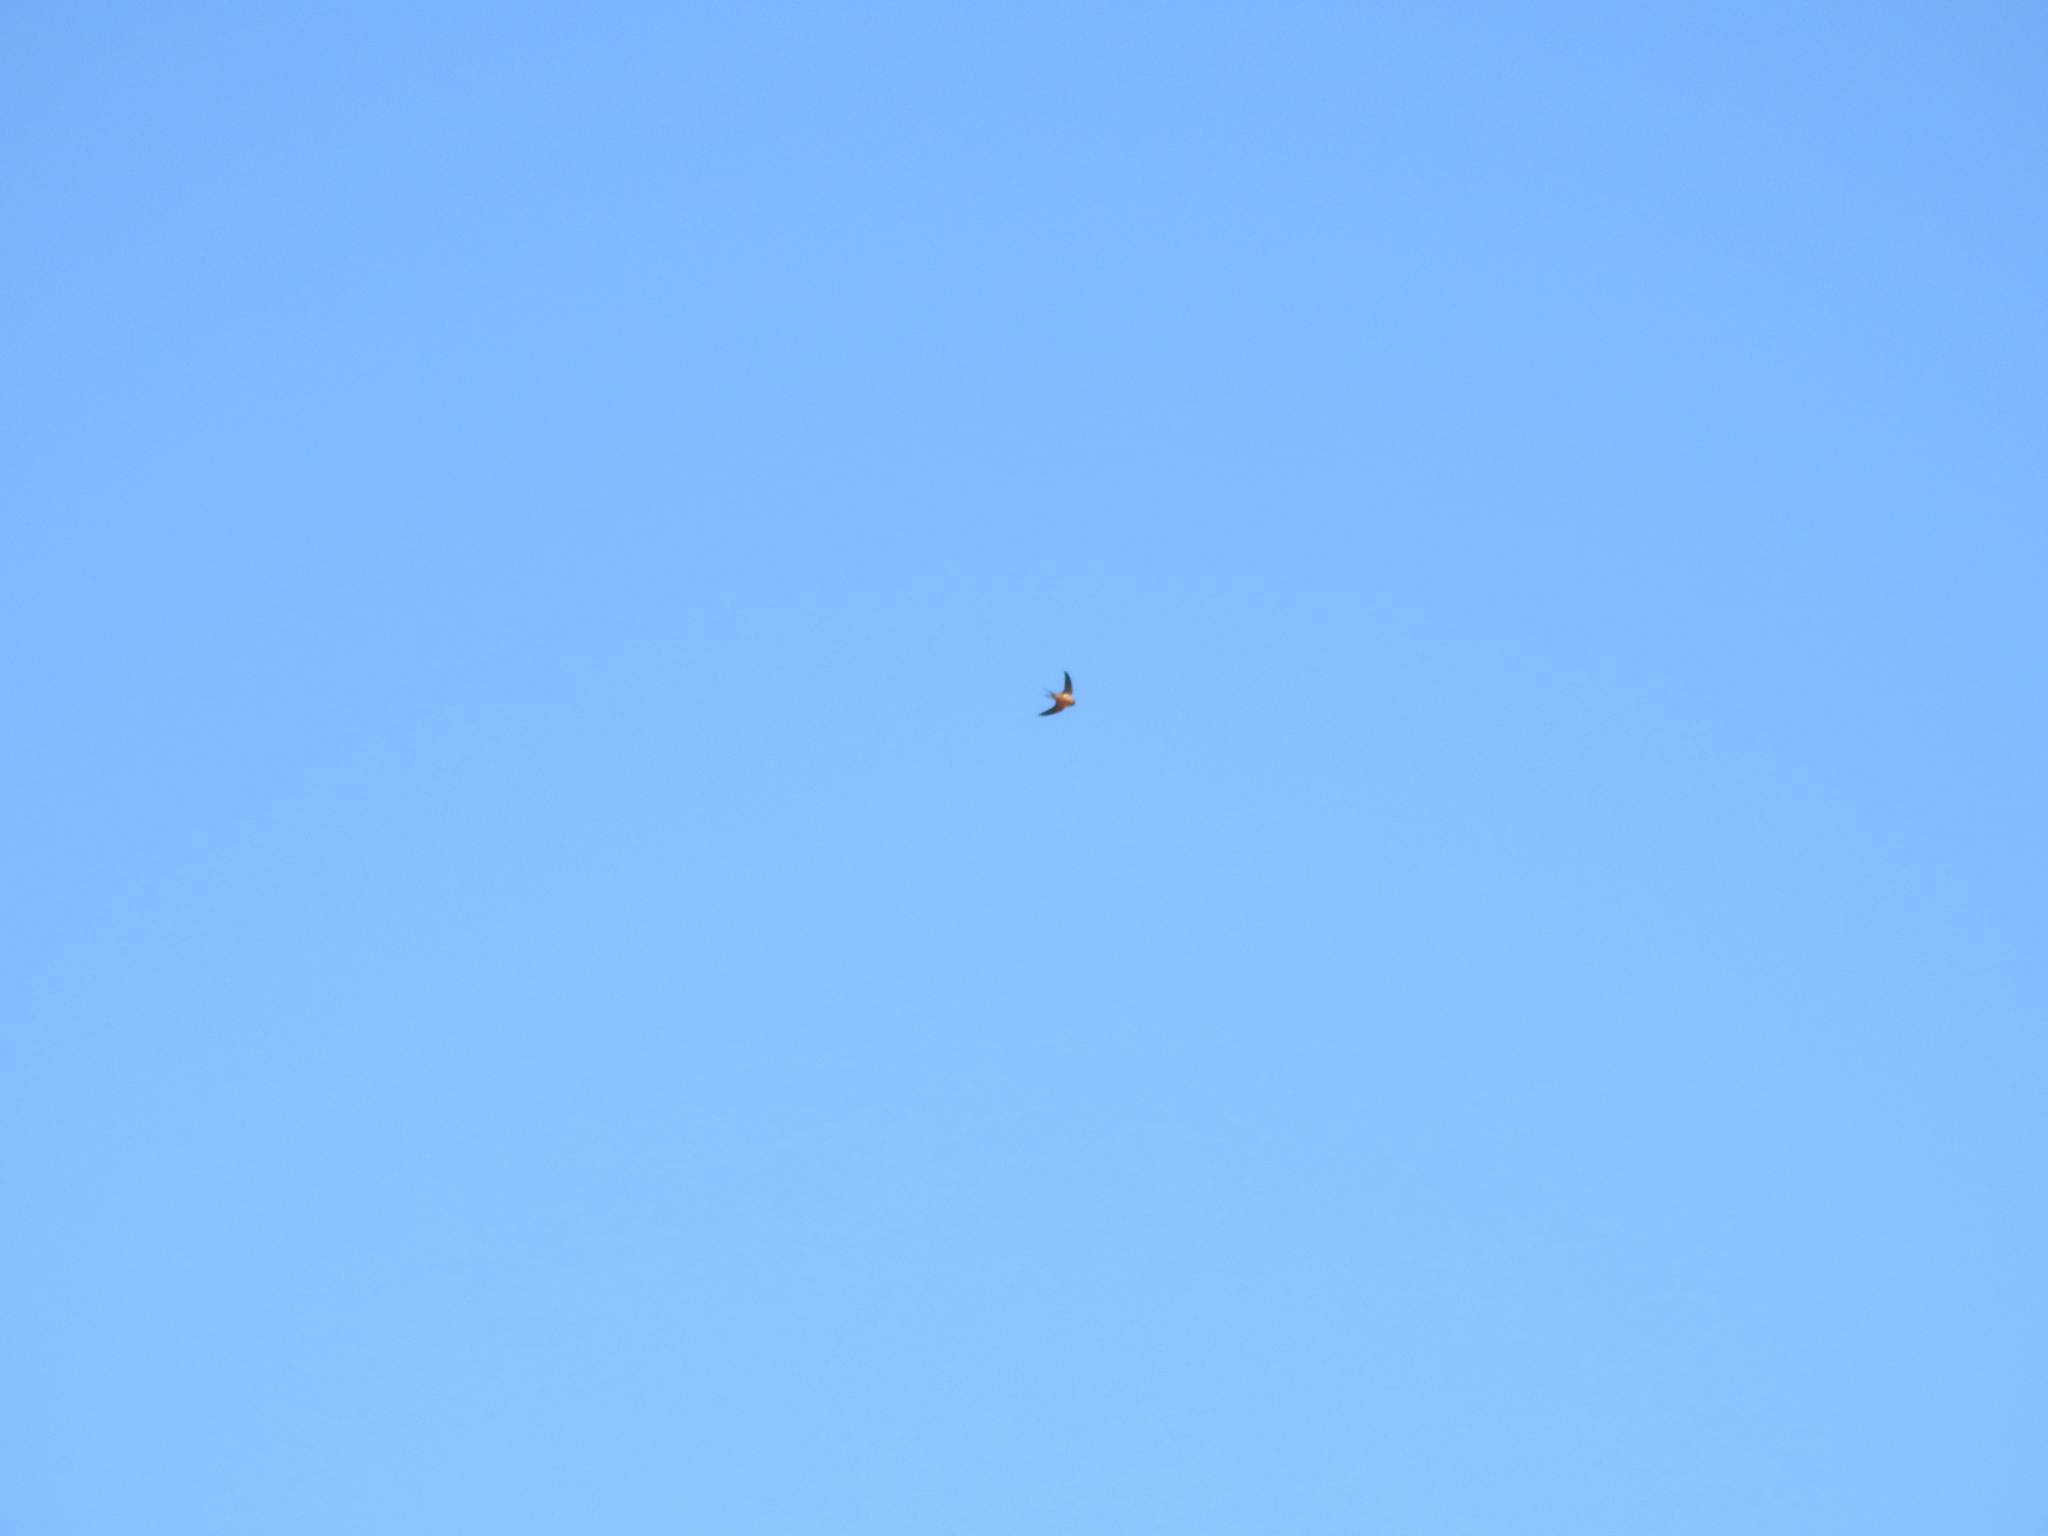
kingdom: Animalia
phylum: Chordata
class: Aves
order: Passeriformes
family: Hirundinidae
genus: Hirundo
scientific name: Hirundo rustica
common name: Barn swallow
